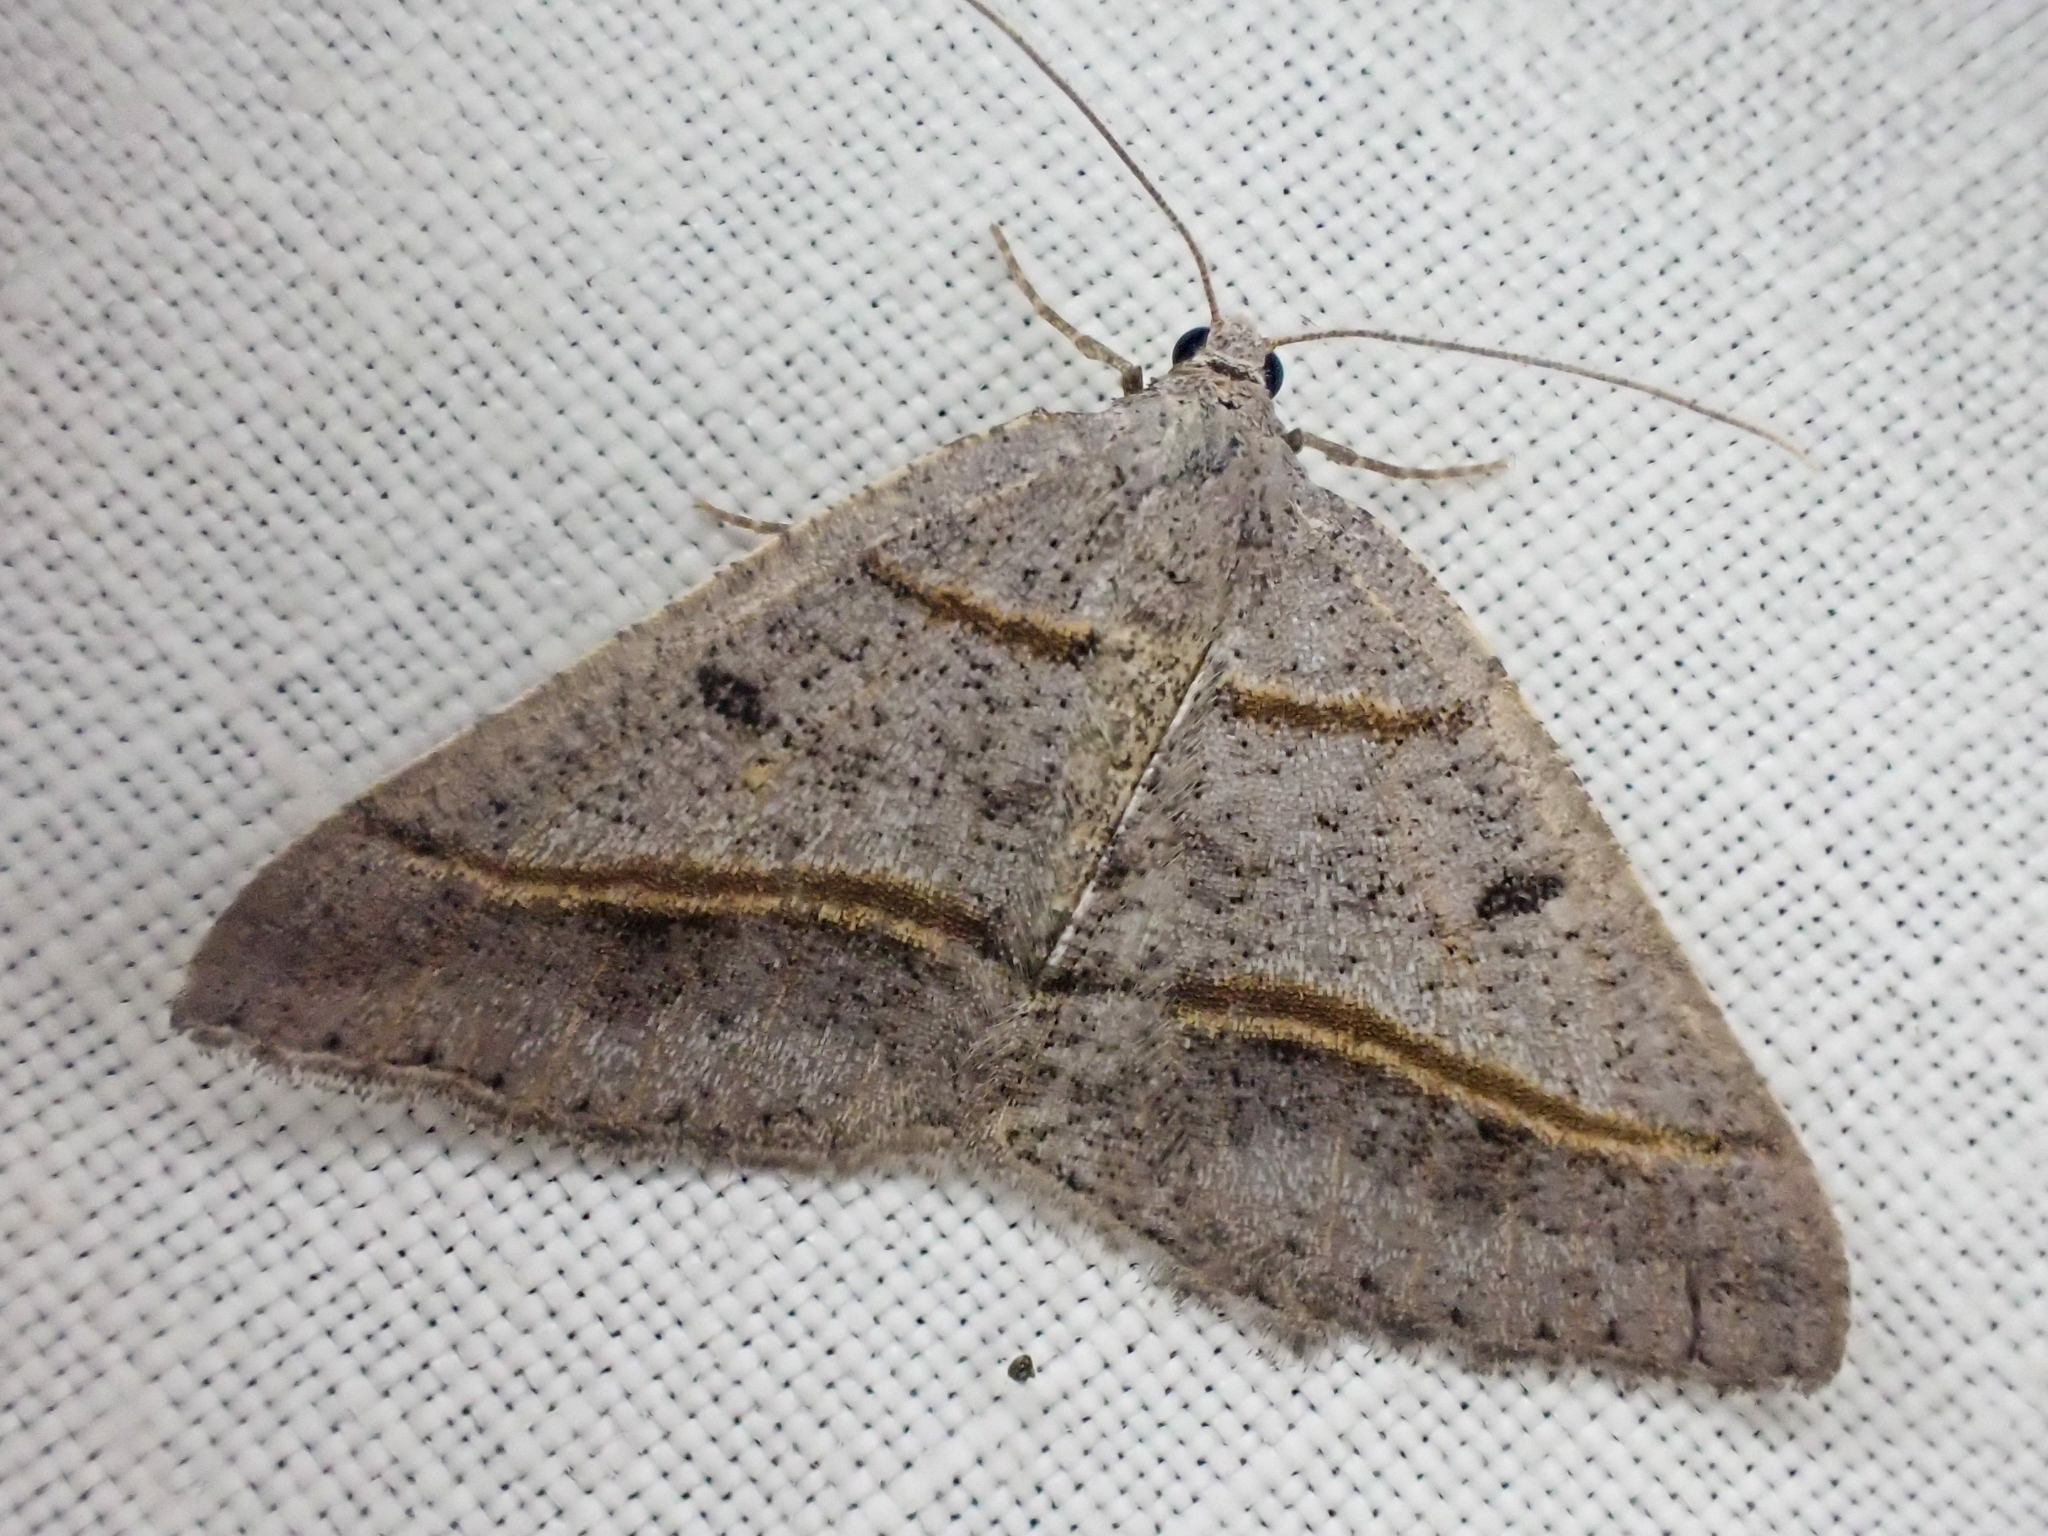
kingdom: Animalia
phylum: Arthropoda
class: Insecta
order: Lepidoptera
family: Geometridae
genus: Digrammia
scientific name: Digrammia neptaria
